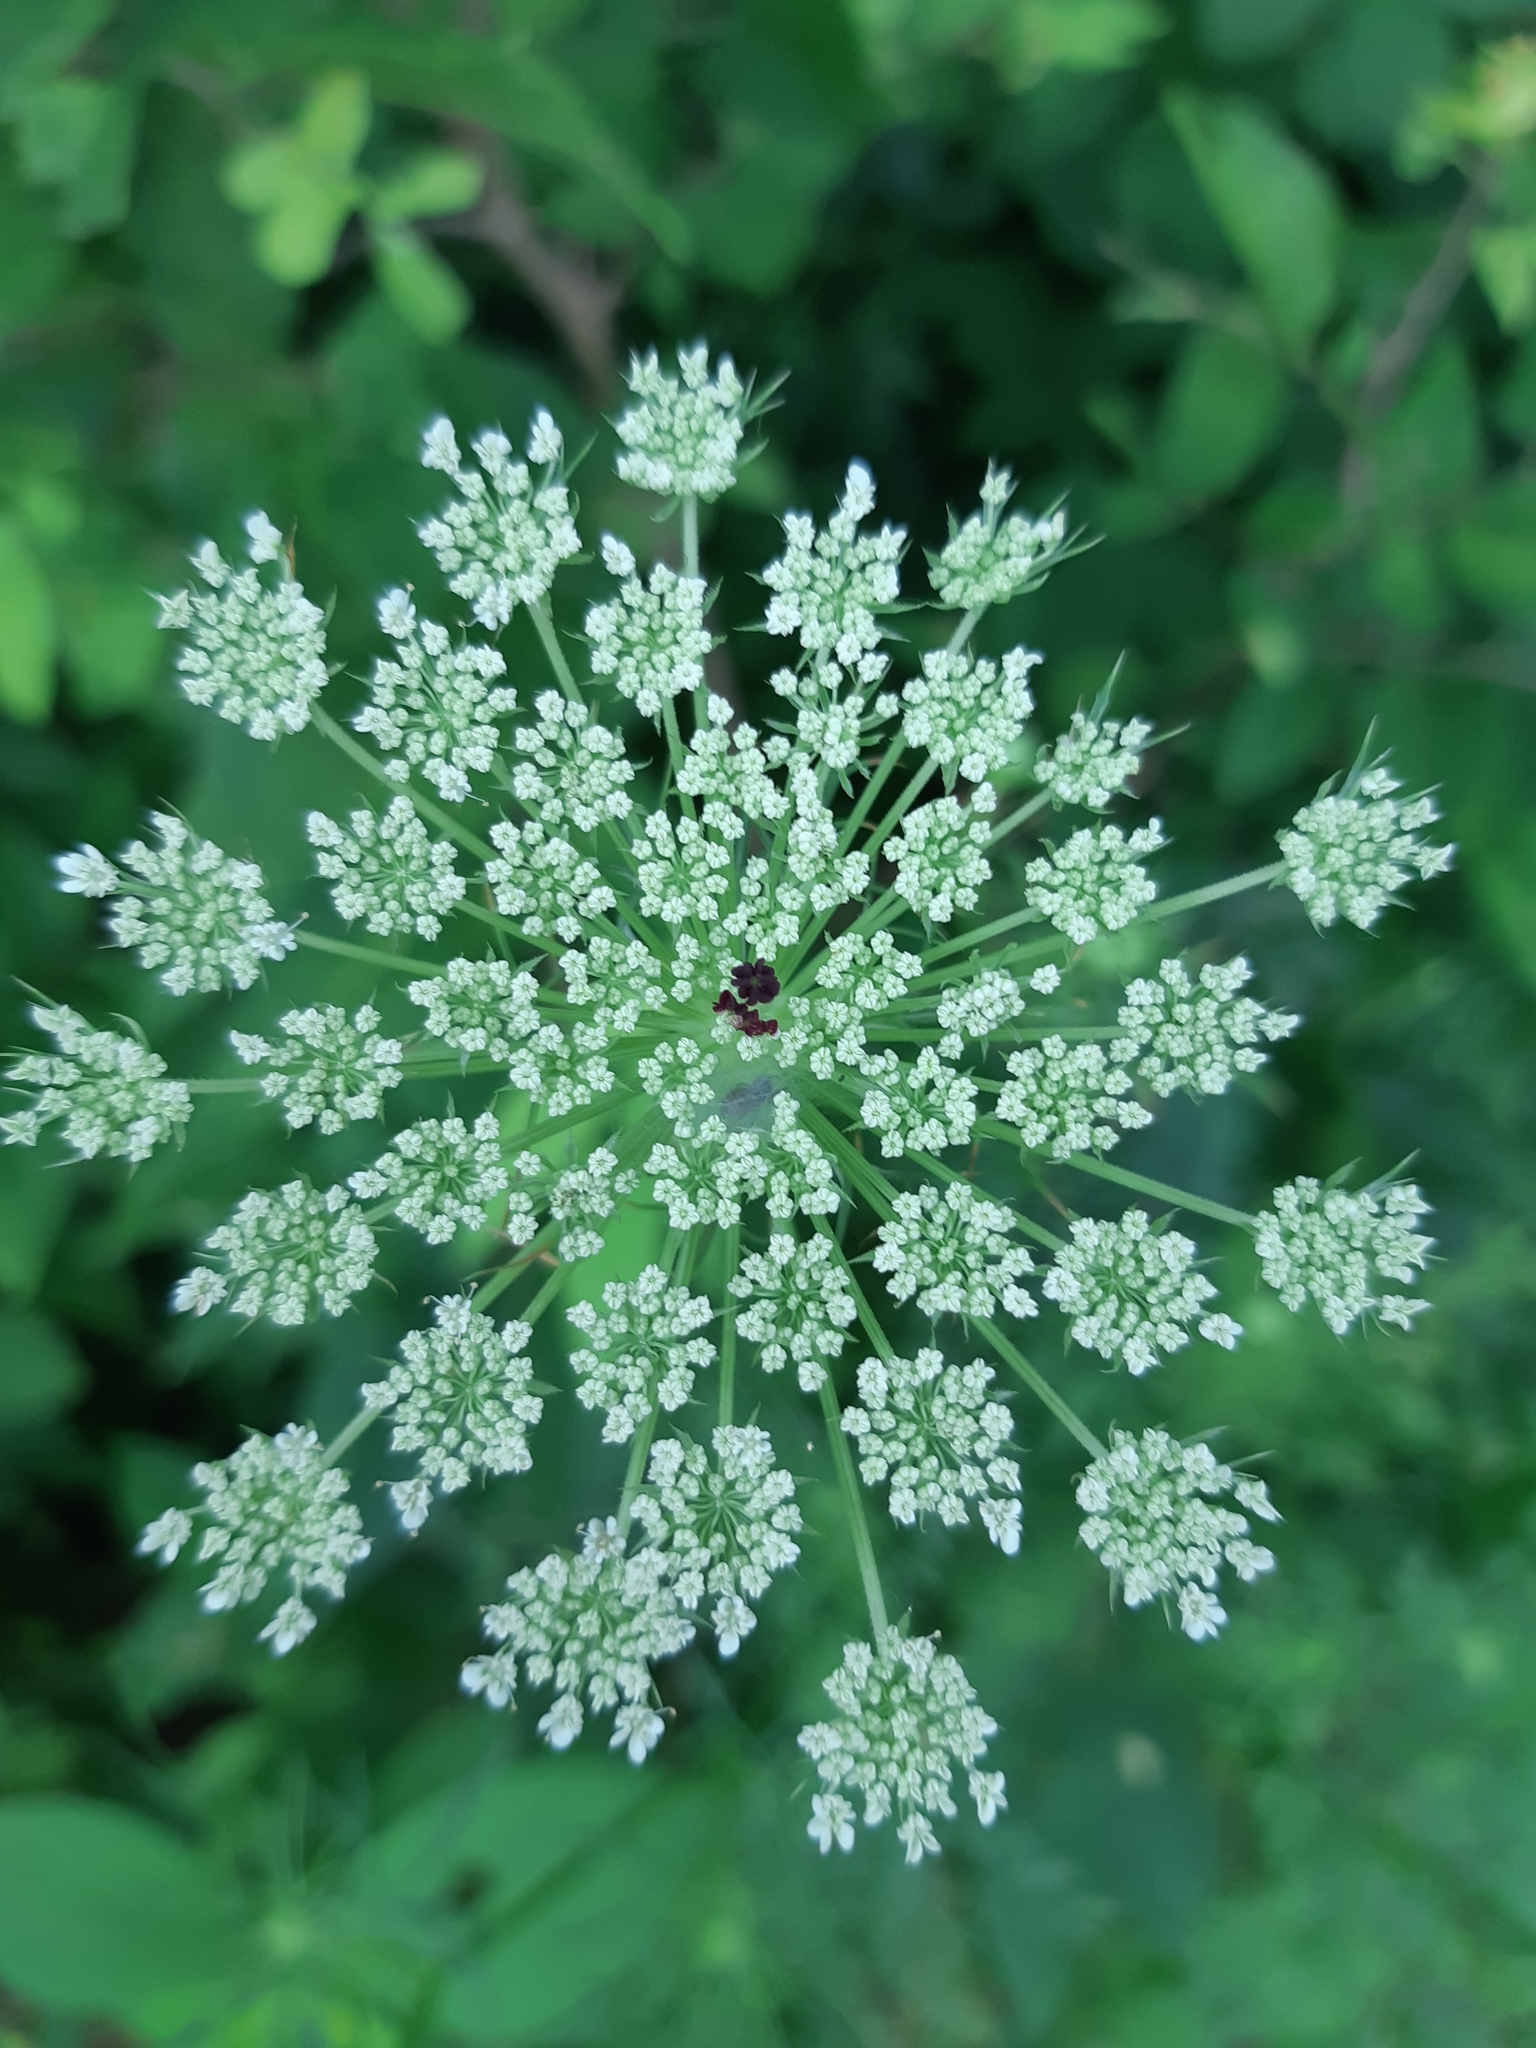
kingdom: Plantae
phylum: Tracheophyta
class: Magnoliopsida
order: Apiales
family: Apiaceae
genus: Daucus
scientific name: Daucus carota
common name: Wild carrot
